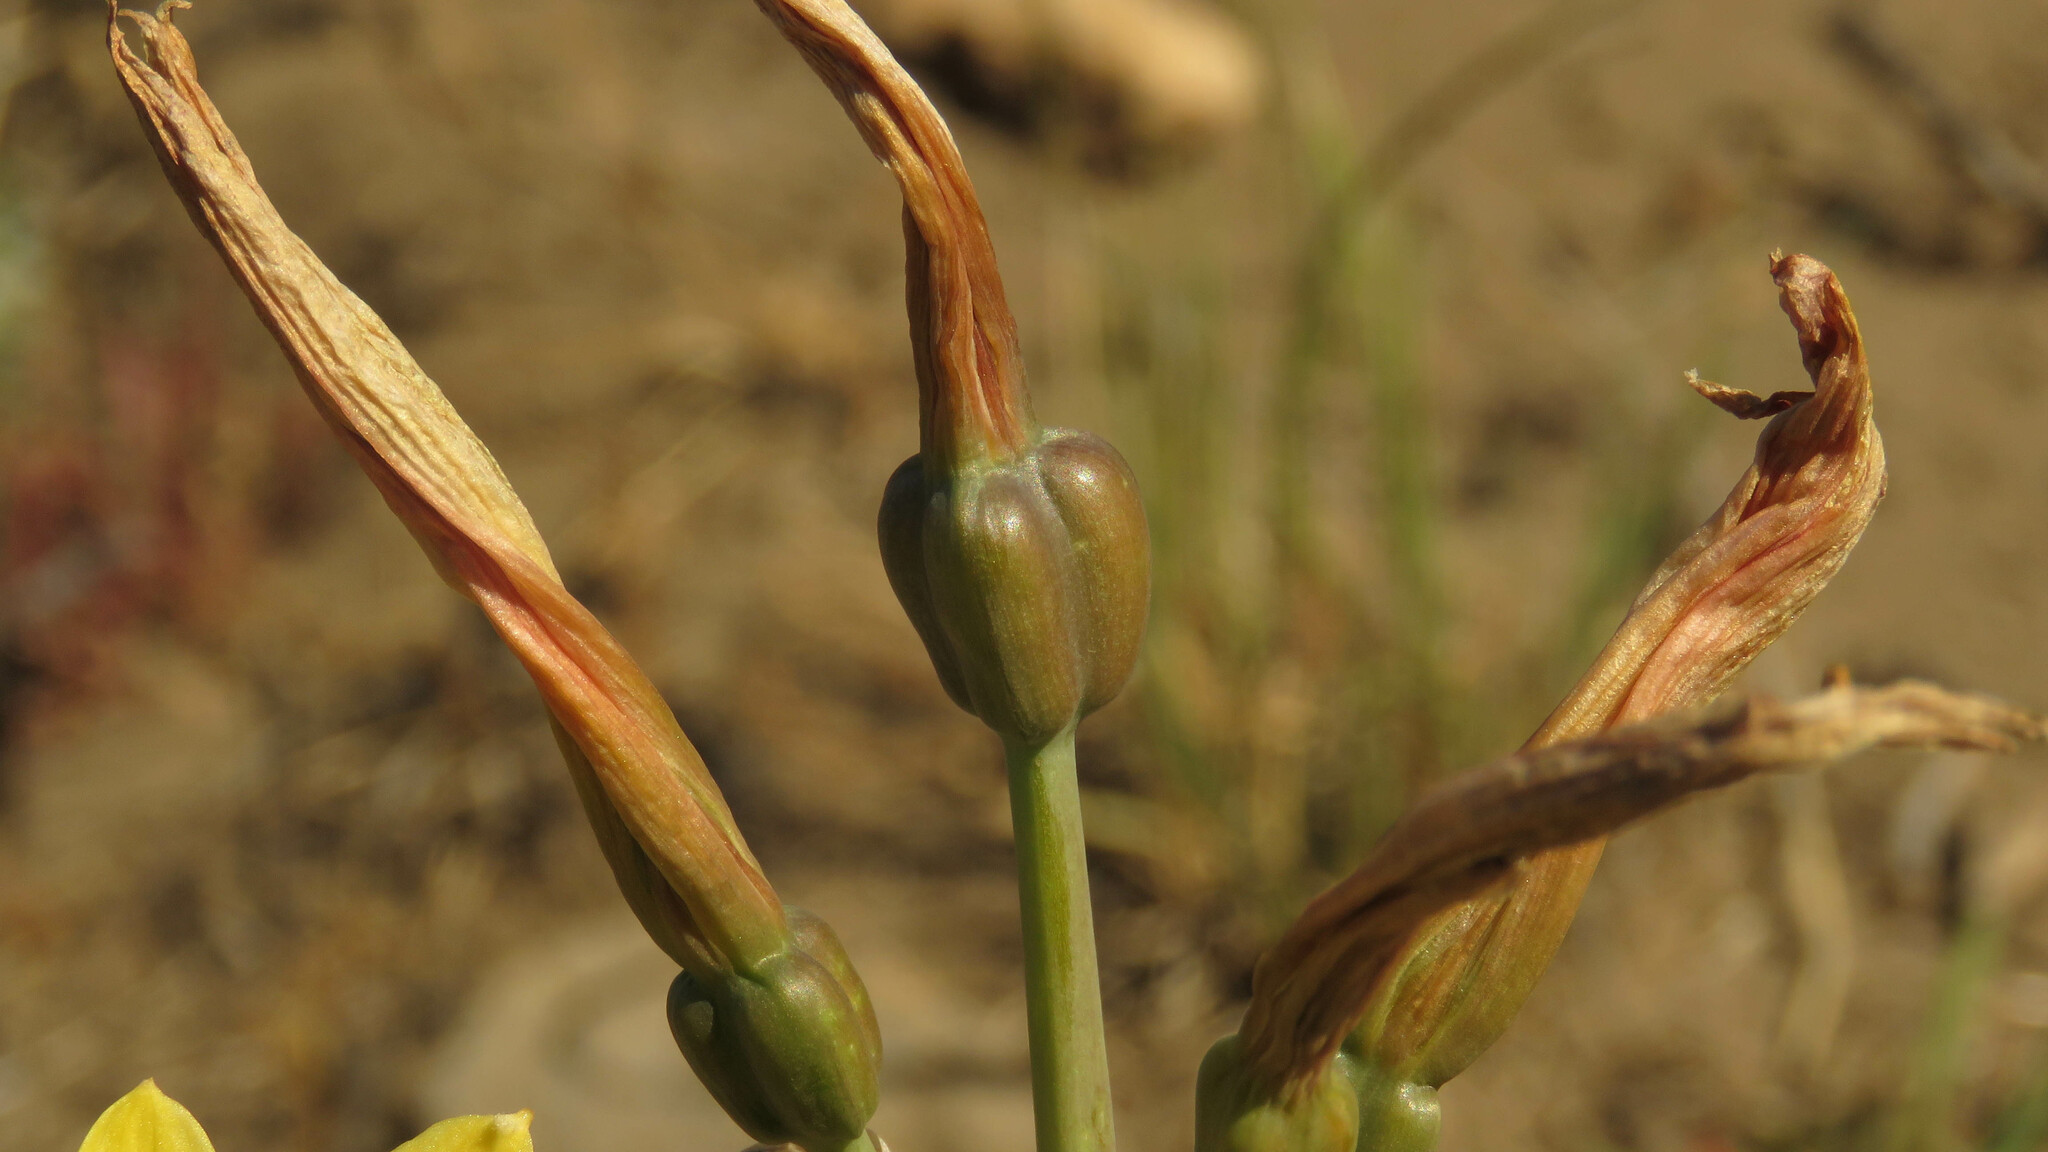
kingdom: Plantae
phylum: Tracheophyta
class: Liliopsida
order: Asparagales
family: Amaryllidaceae
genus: Zephyranthes
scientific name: Zephyranthes gilliesiana
